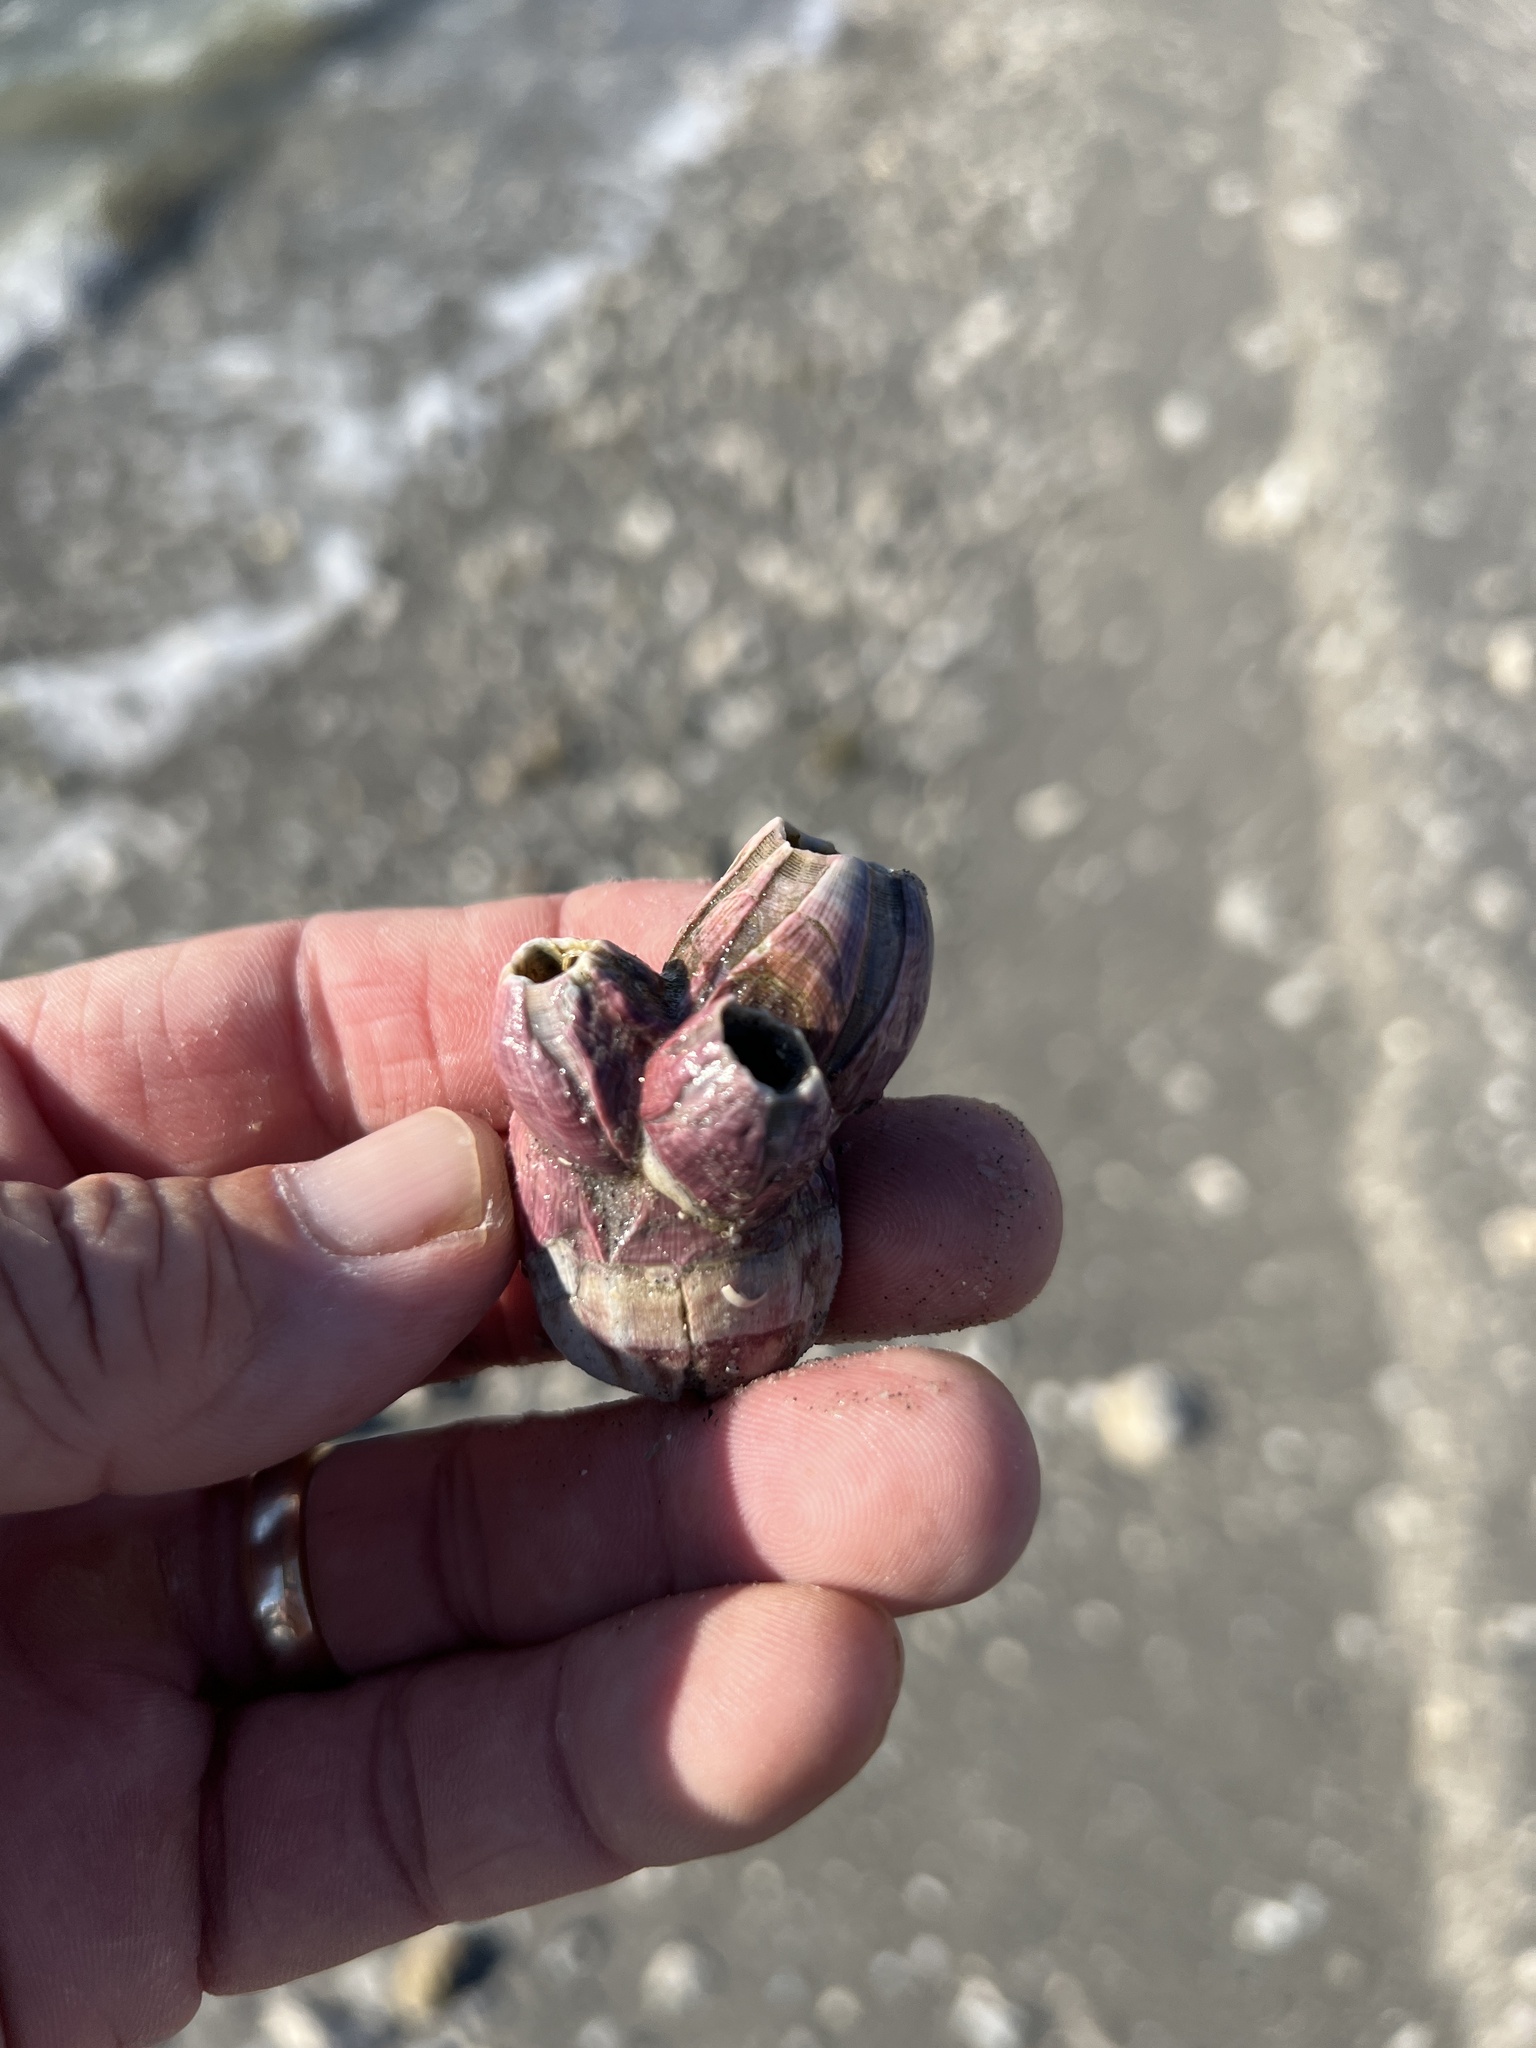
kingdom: Animalia
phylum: Arthropoda
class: Maxillopoda
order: Sessilia
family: Balanidae
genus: Megabalanus
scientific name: Megabalanus tintinnabulum
